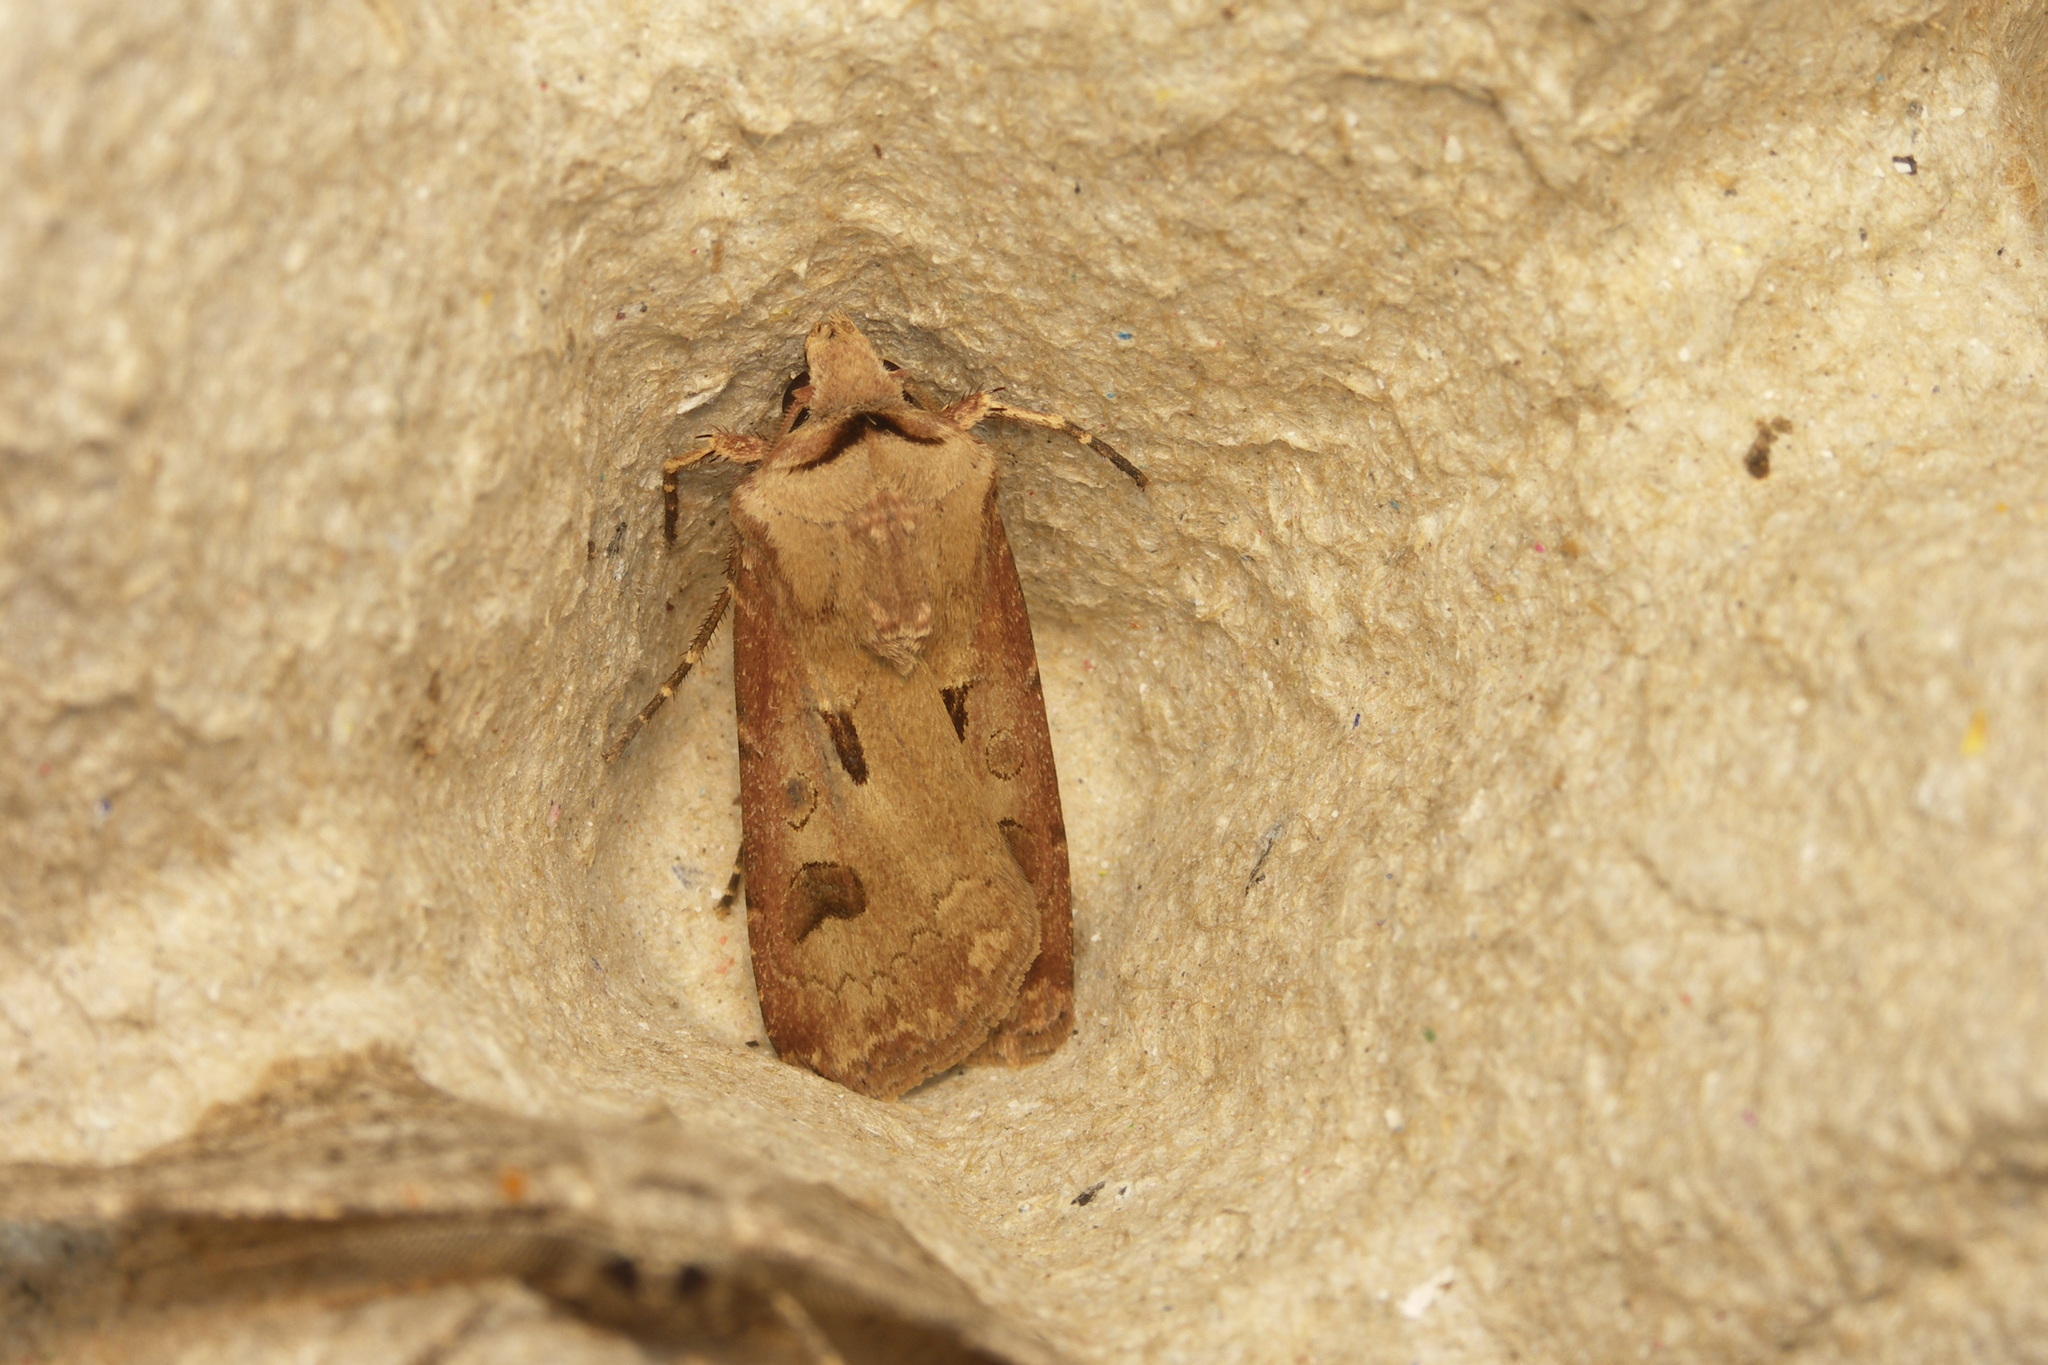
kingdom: Animalia
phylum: Arthropoda
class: Insecta
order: Lepidoptera
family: Noctuidae
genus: Agrotis
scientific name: Agrotis exclamationis
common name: Heart and dart
